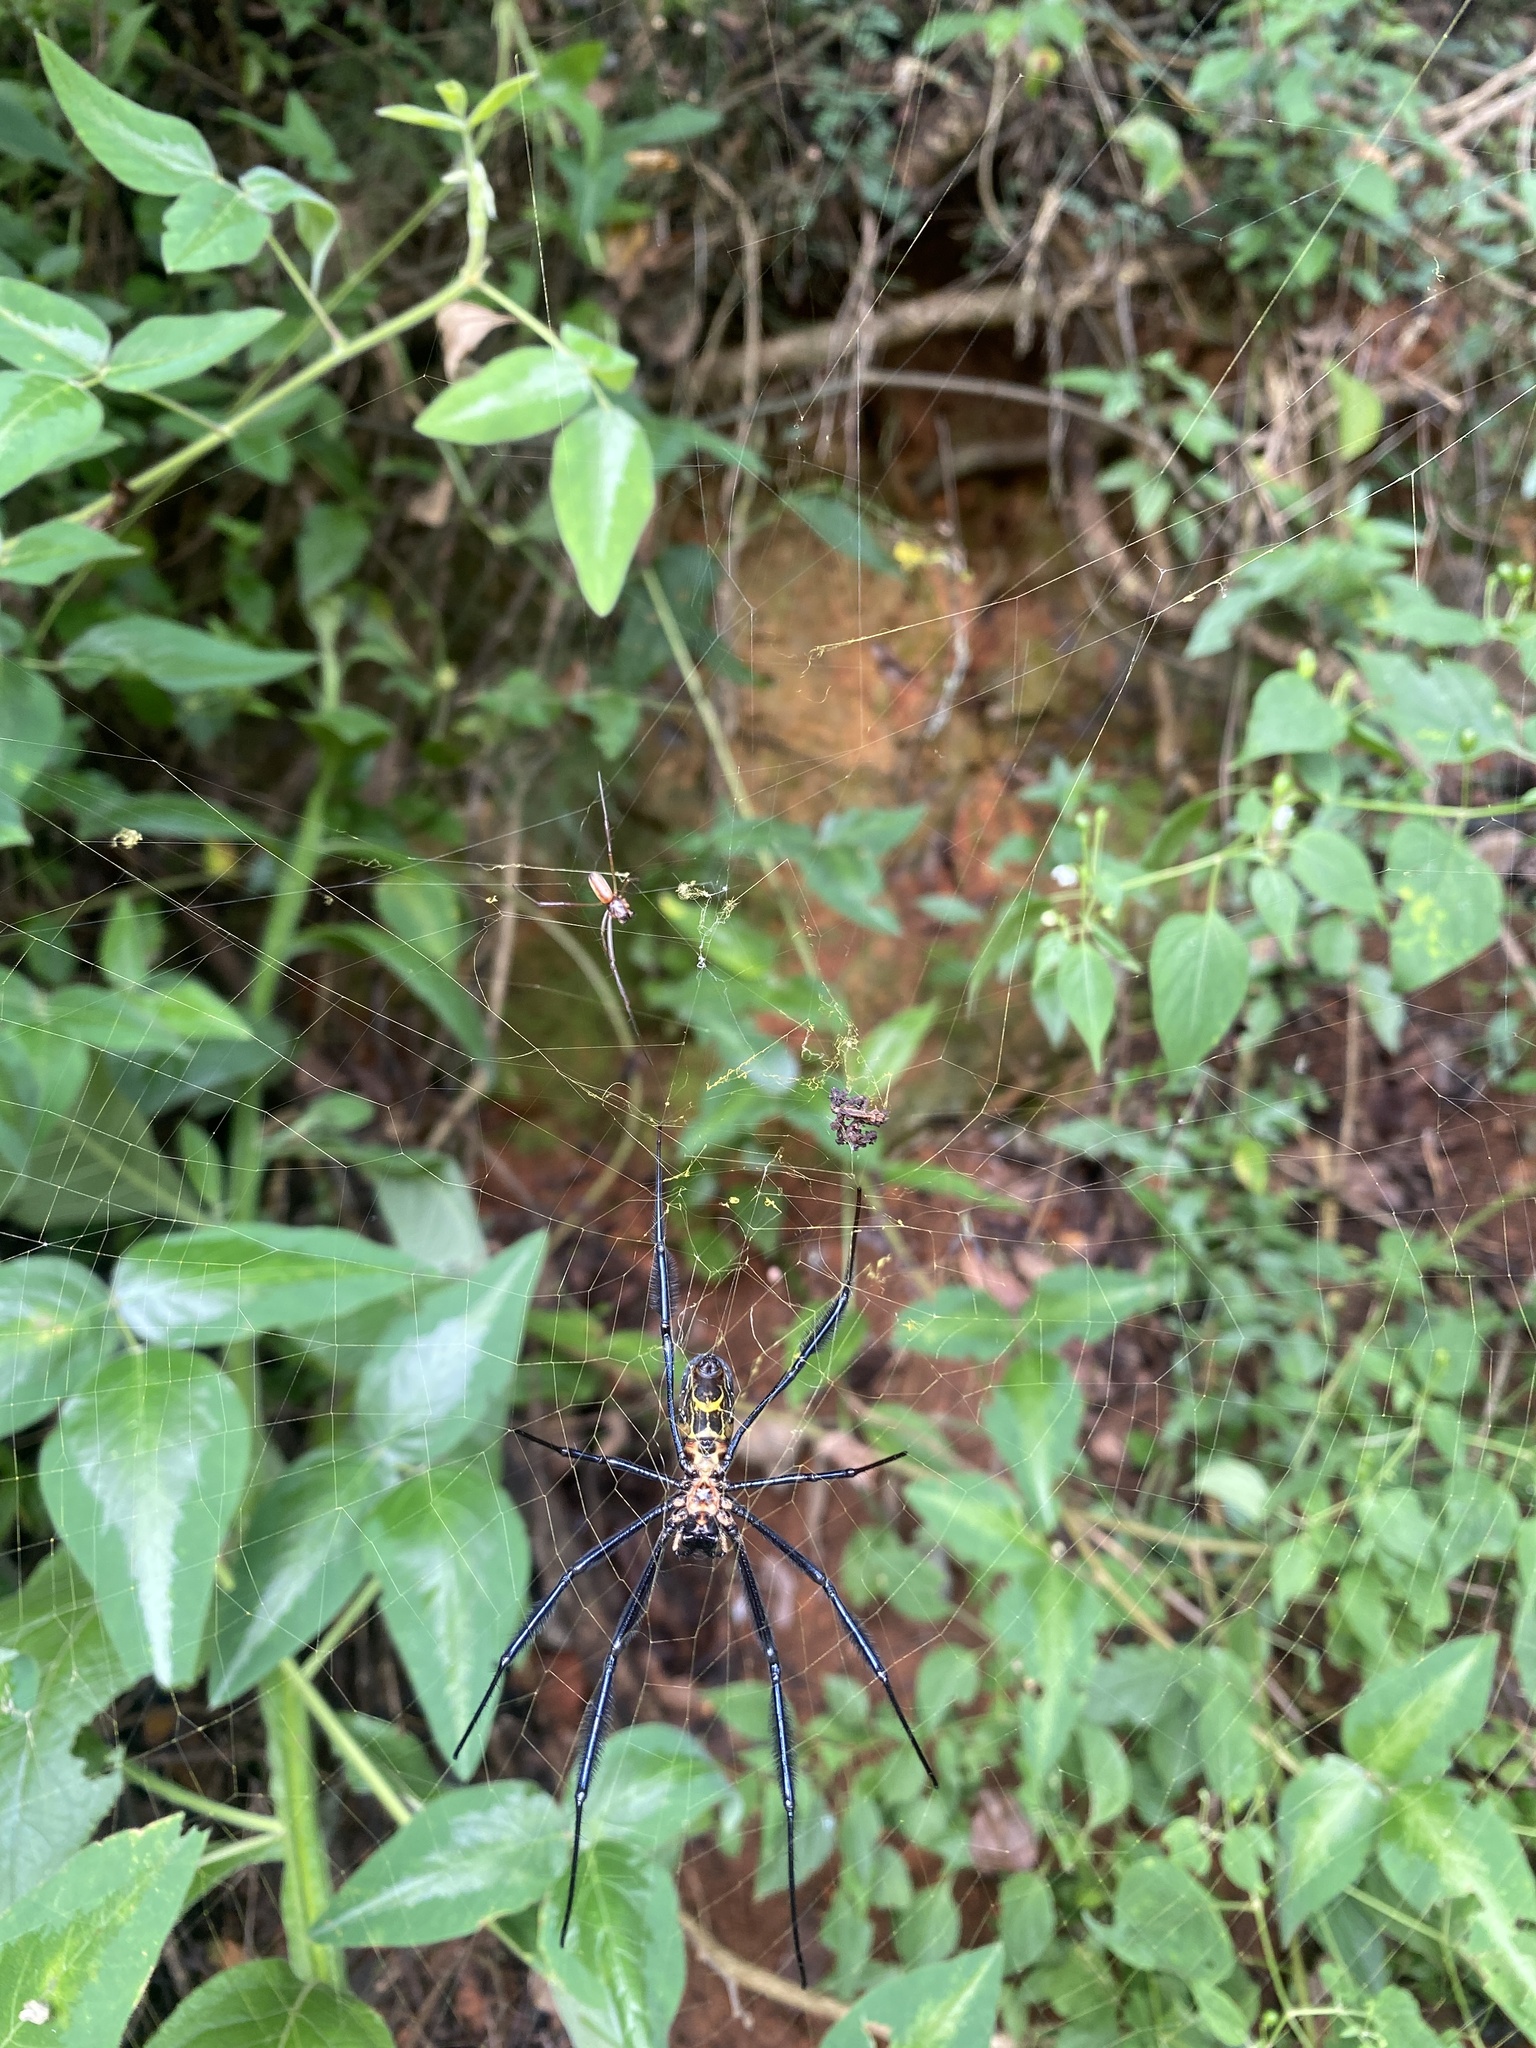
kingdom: Animalia
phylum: Arthropoda
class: Arachnida
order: Araneae
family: Araneidae
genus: Trichonephila
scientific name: Trichonephila fenestrata
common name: Hairy golden orb weaver
